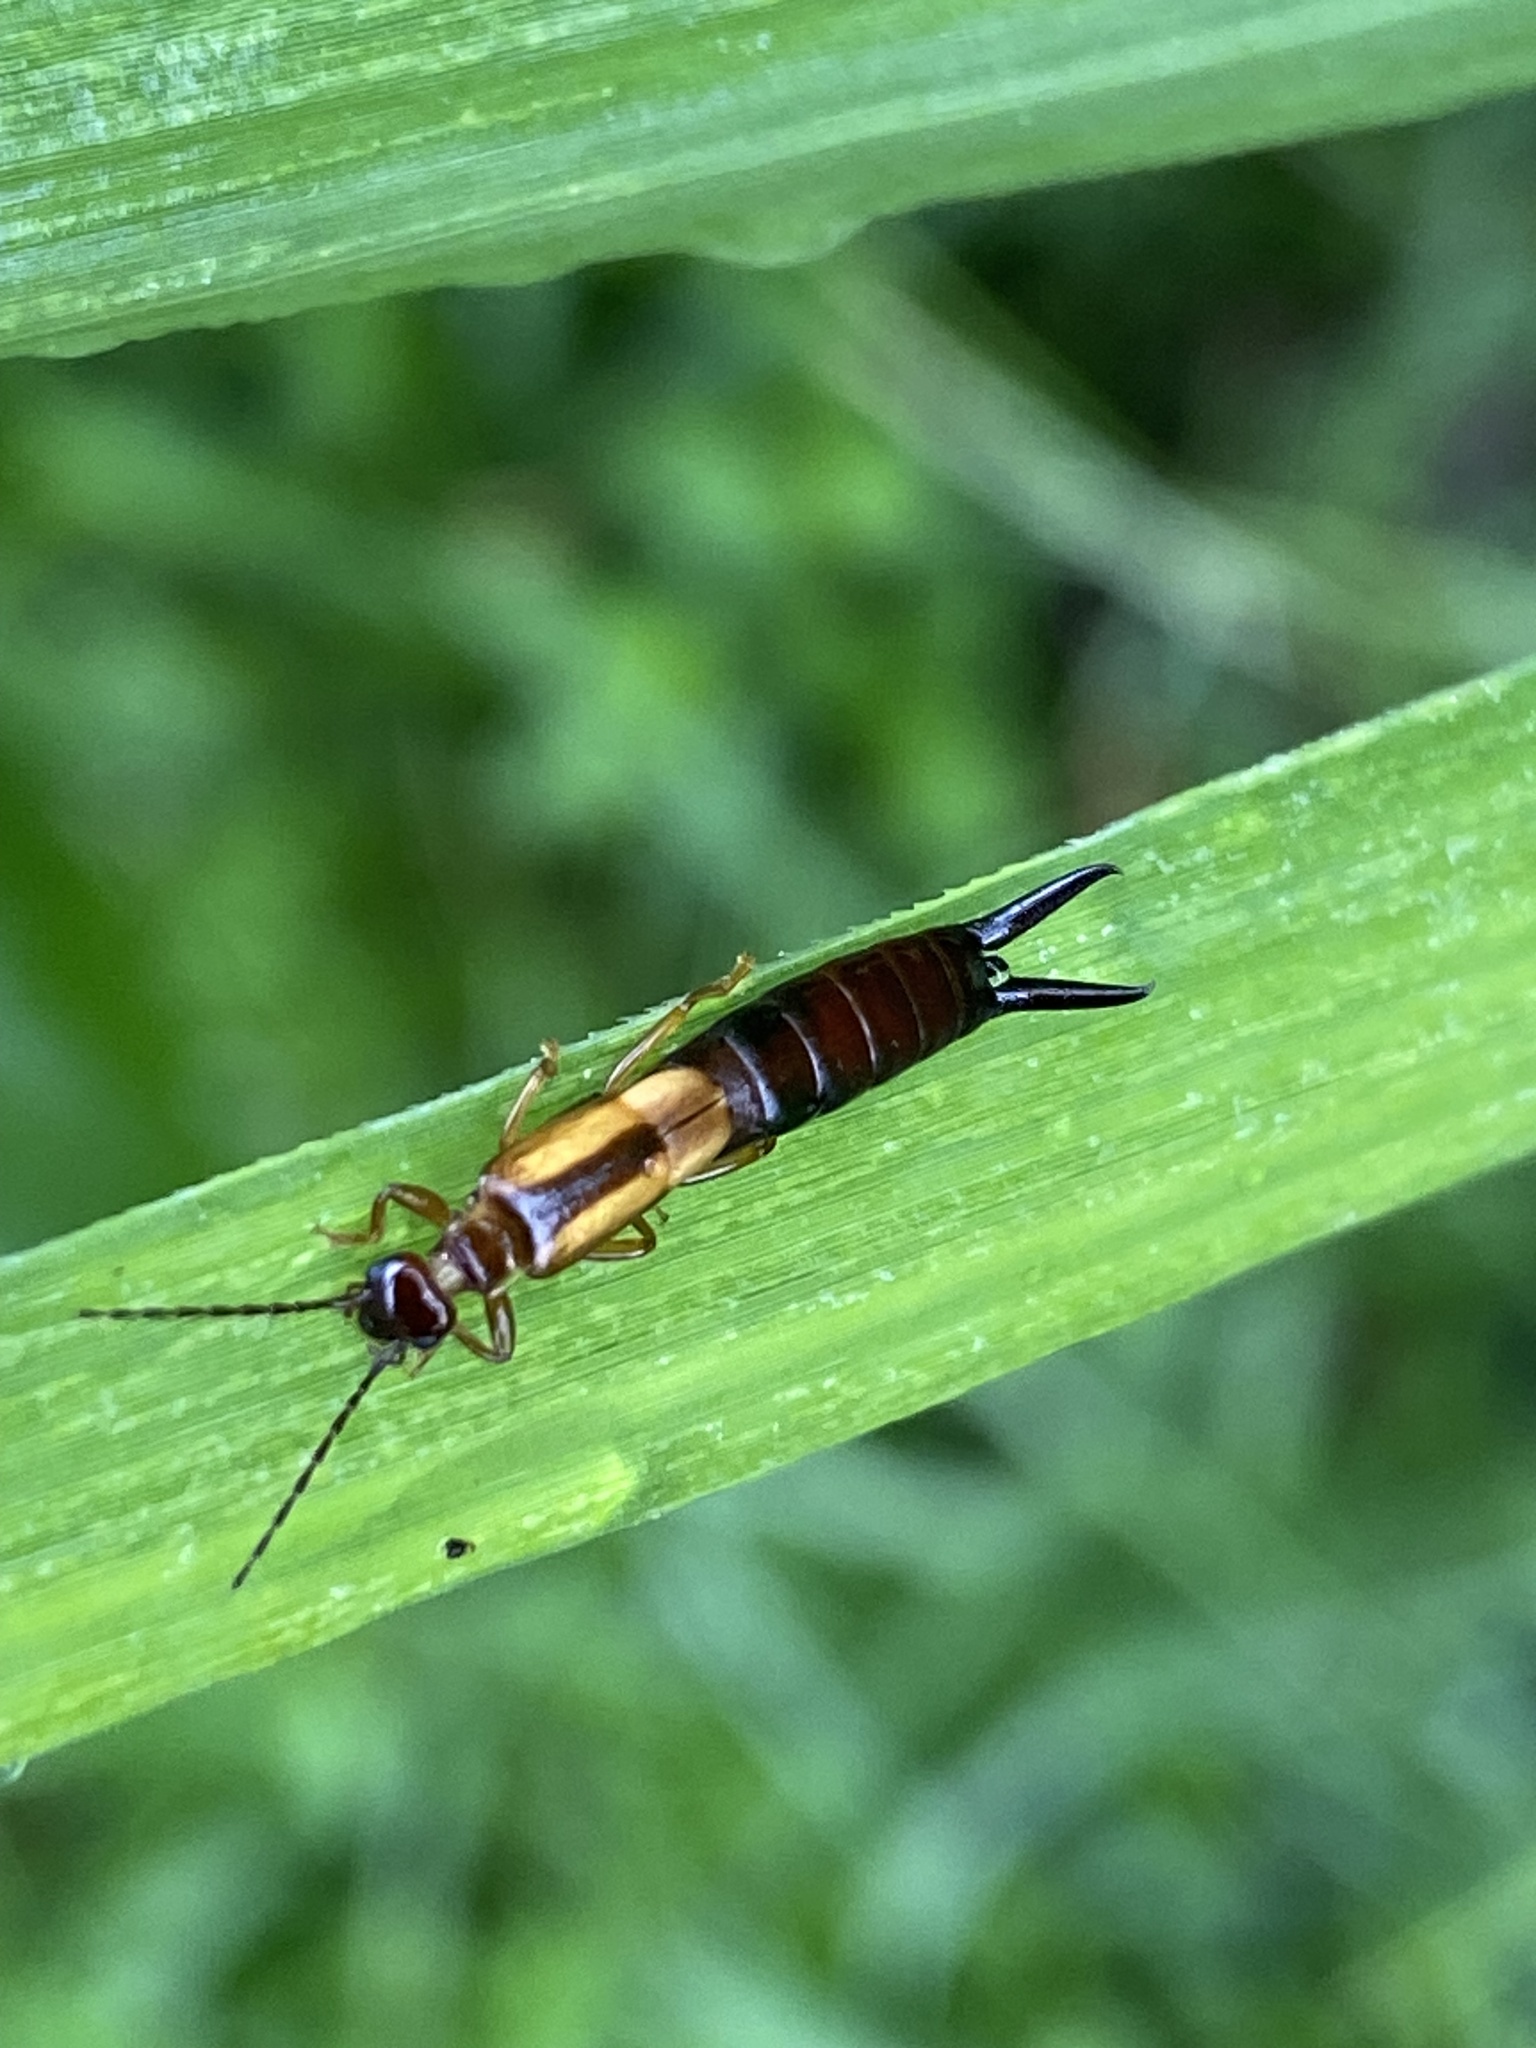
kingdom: Animalia
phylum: Arthropoda
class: Insecta
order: Dermaptera
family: Forficulidae
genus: Elaunon
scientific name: Elaunon bipartitus
